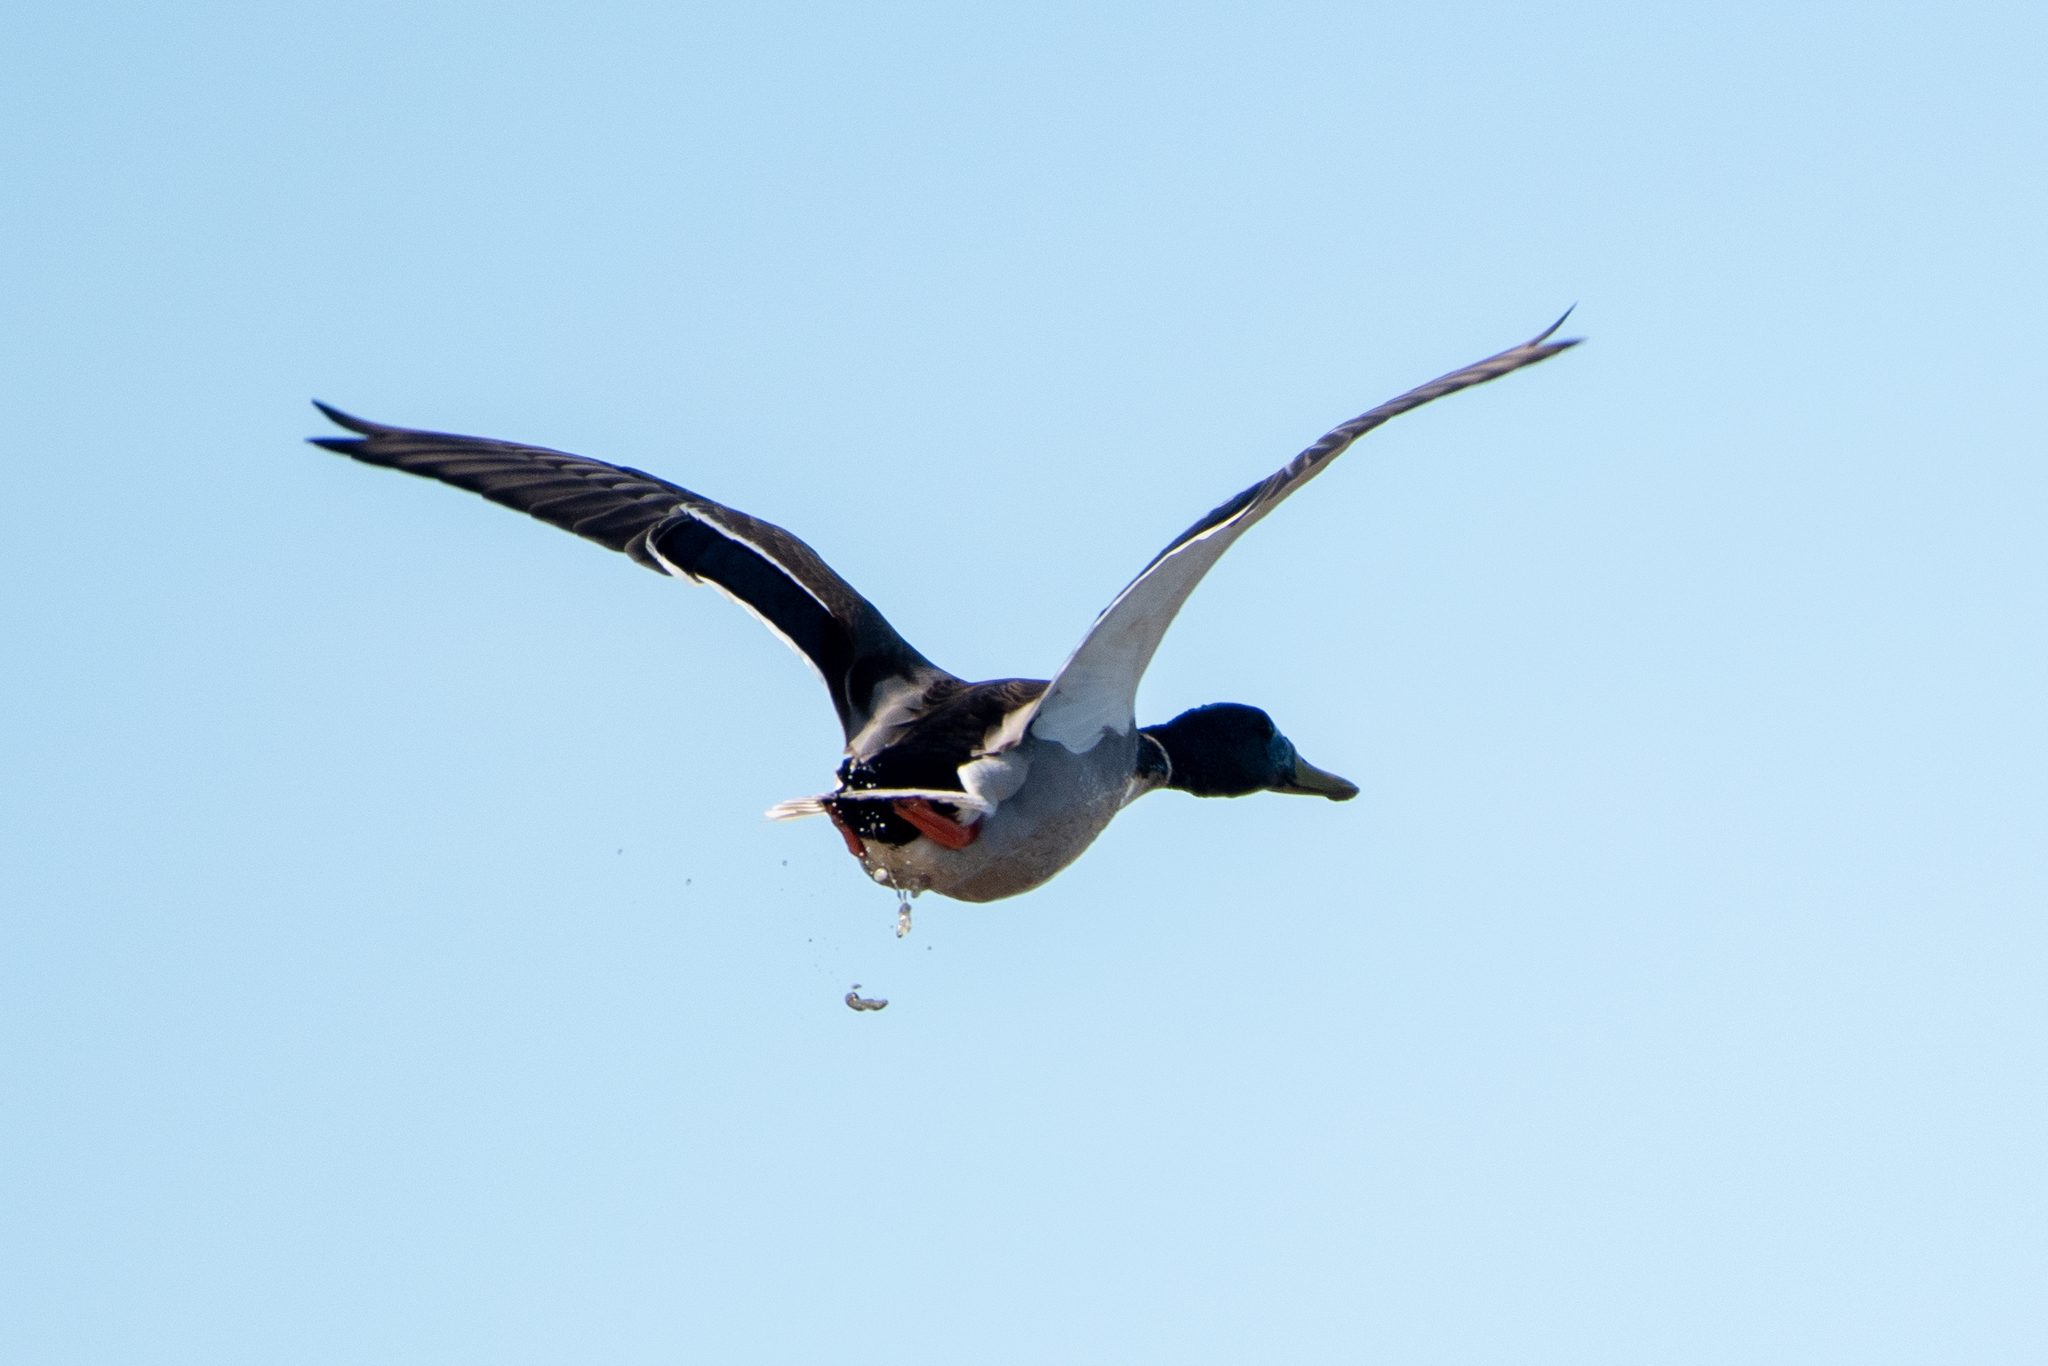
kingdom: Animalia
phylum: Chordata
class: Aves
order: Anseriformes
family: Anatidae
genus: Anas
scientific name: Anas platyrhynchos
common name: Mallard
